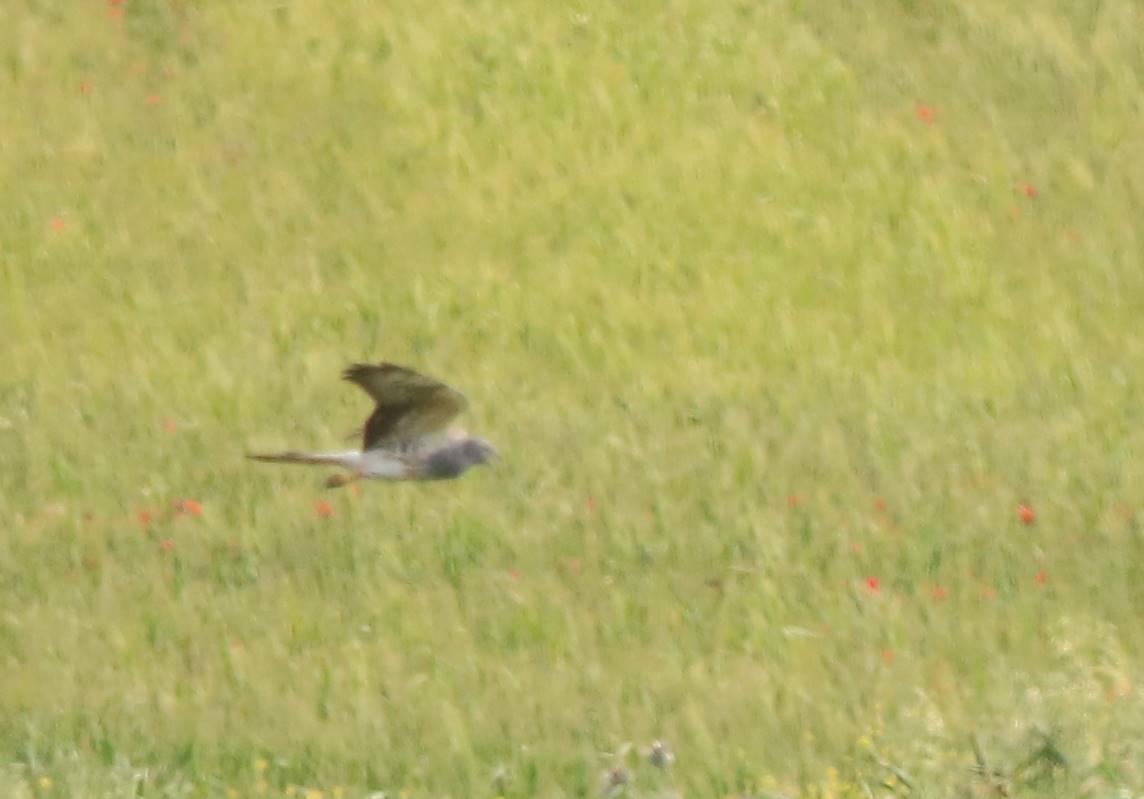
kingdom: Animalia
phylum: Chordata
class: Aves
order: Accipitriformes
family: Accipitridae
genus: Circus
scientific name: Circus pygargus
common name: Montagu's harrier
